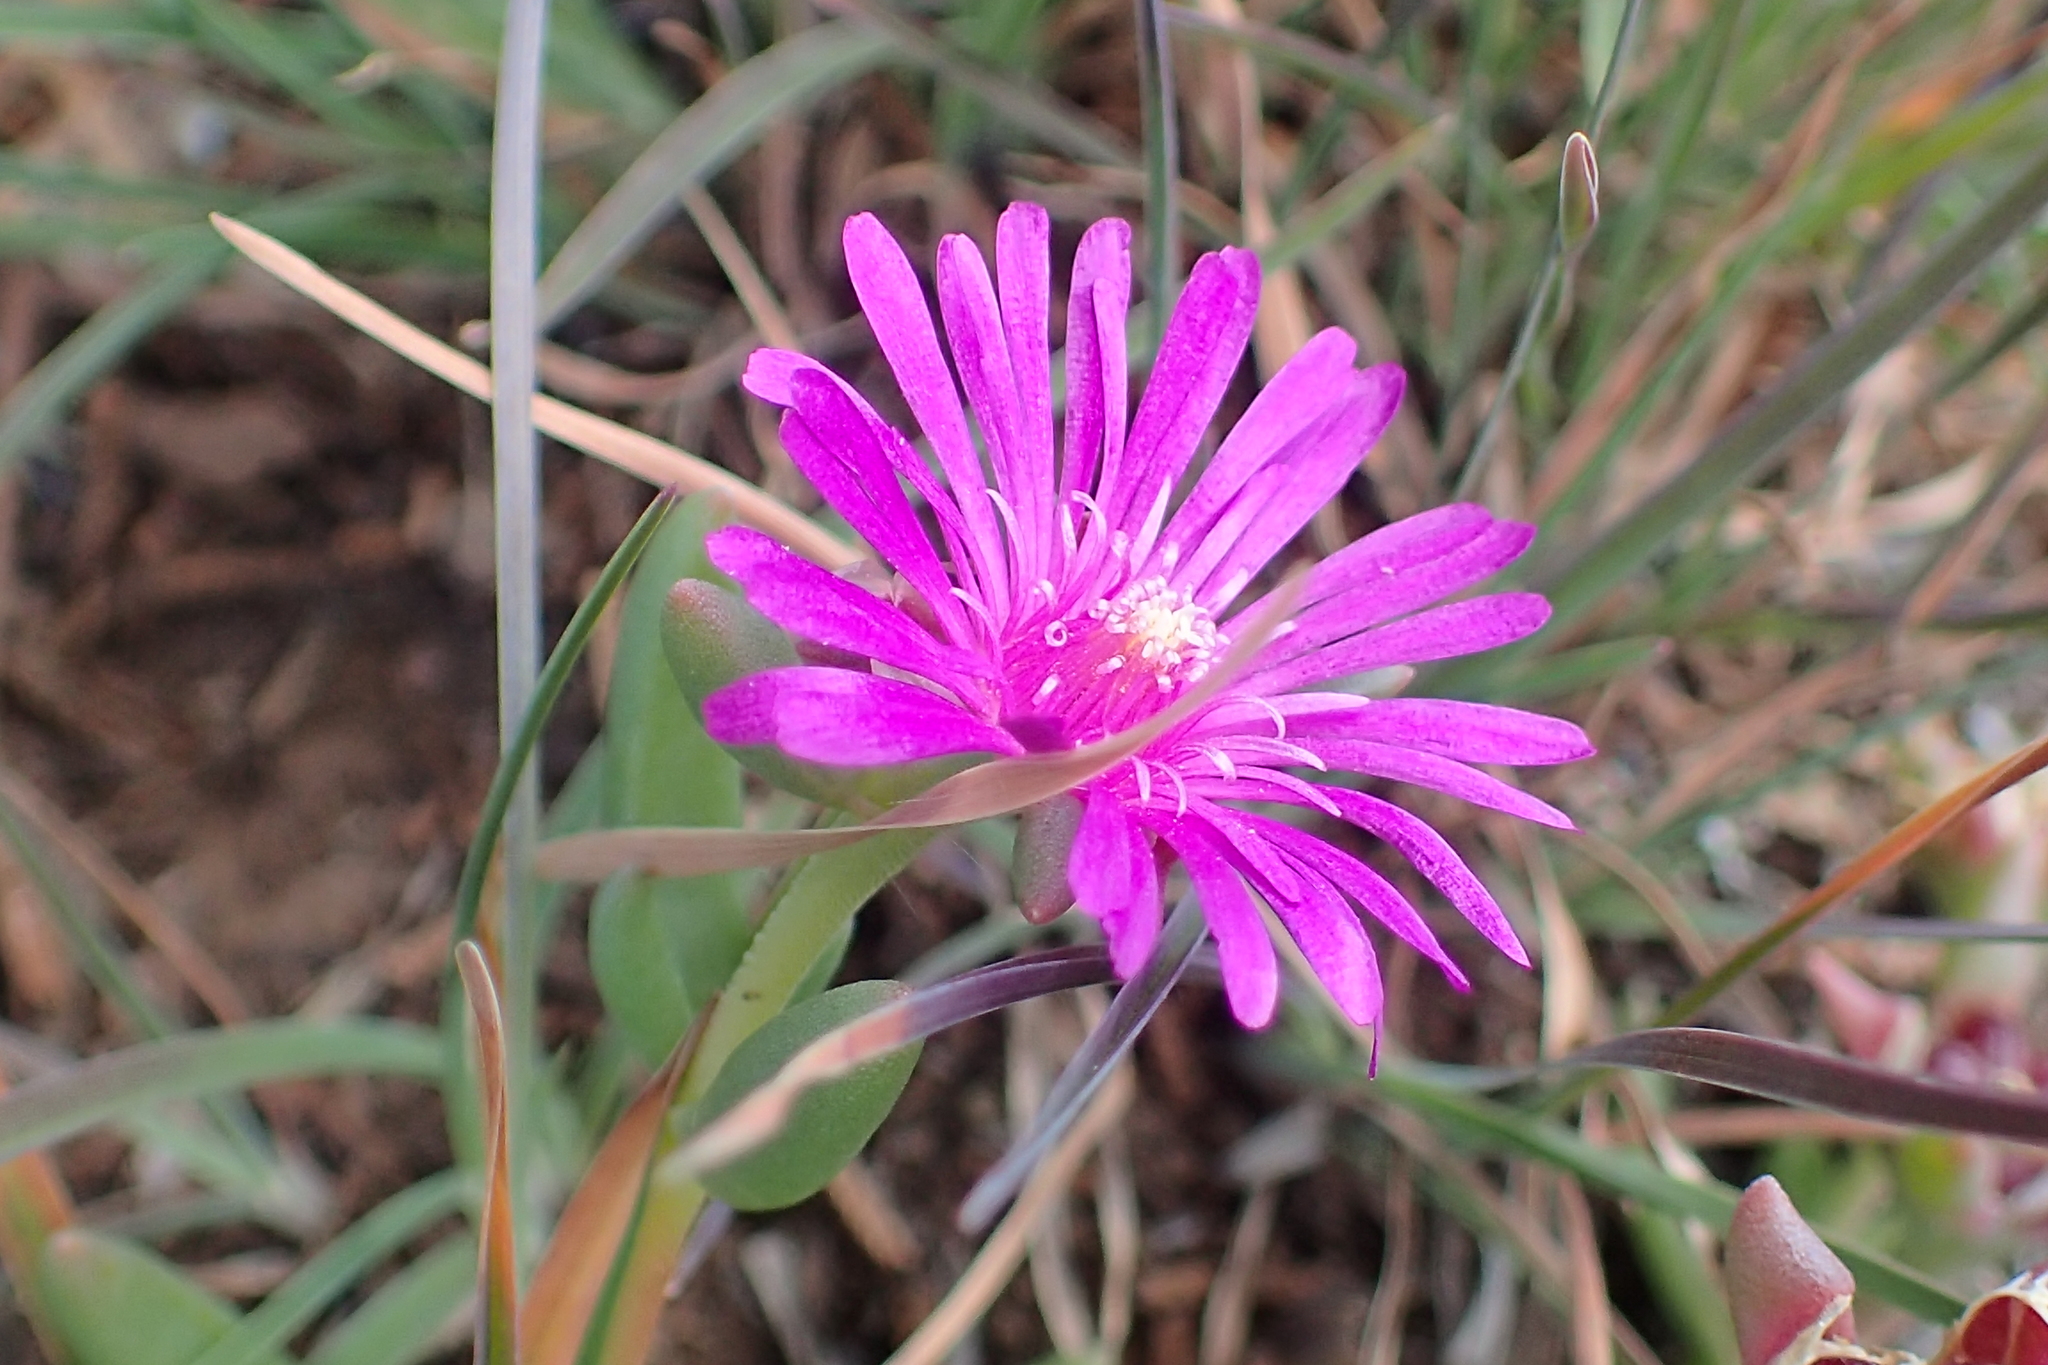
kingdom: Plantae
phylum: Tracheophyta
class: Magnoliopsida
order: Caryophyllales
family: Aizoaceae
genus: Delosperma
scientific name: Delosperma lavisiae
